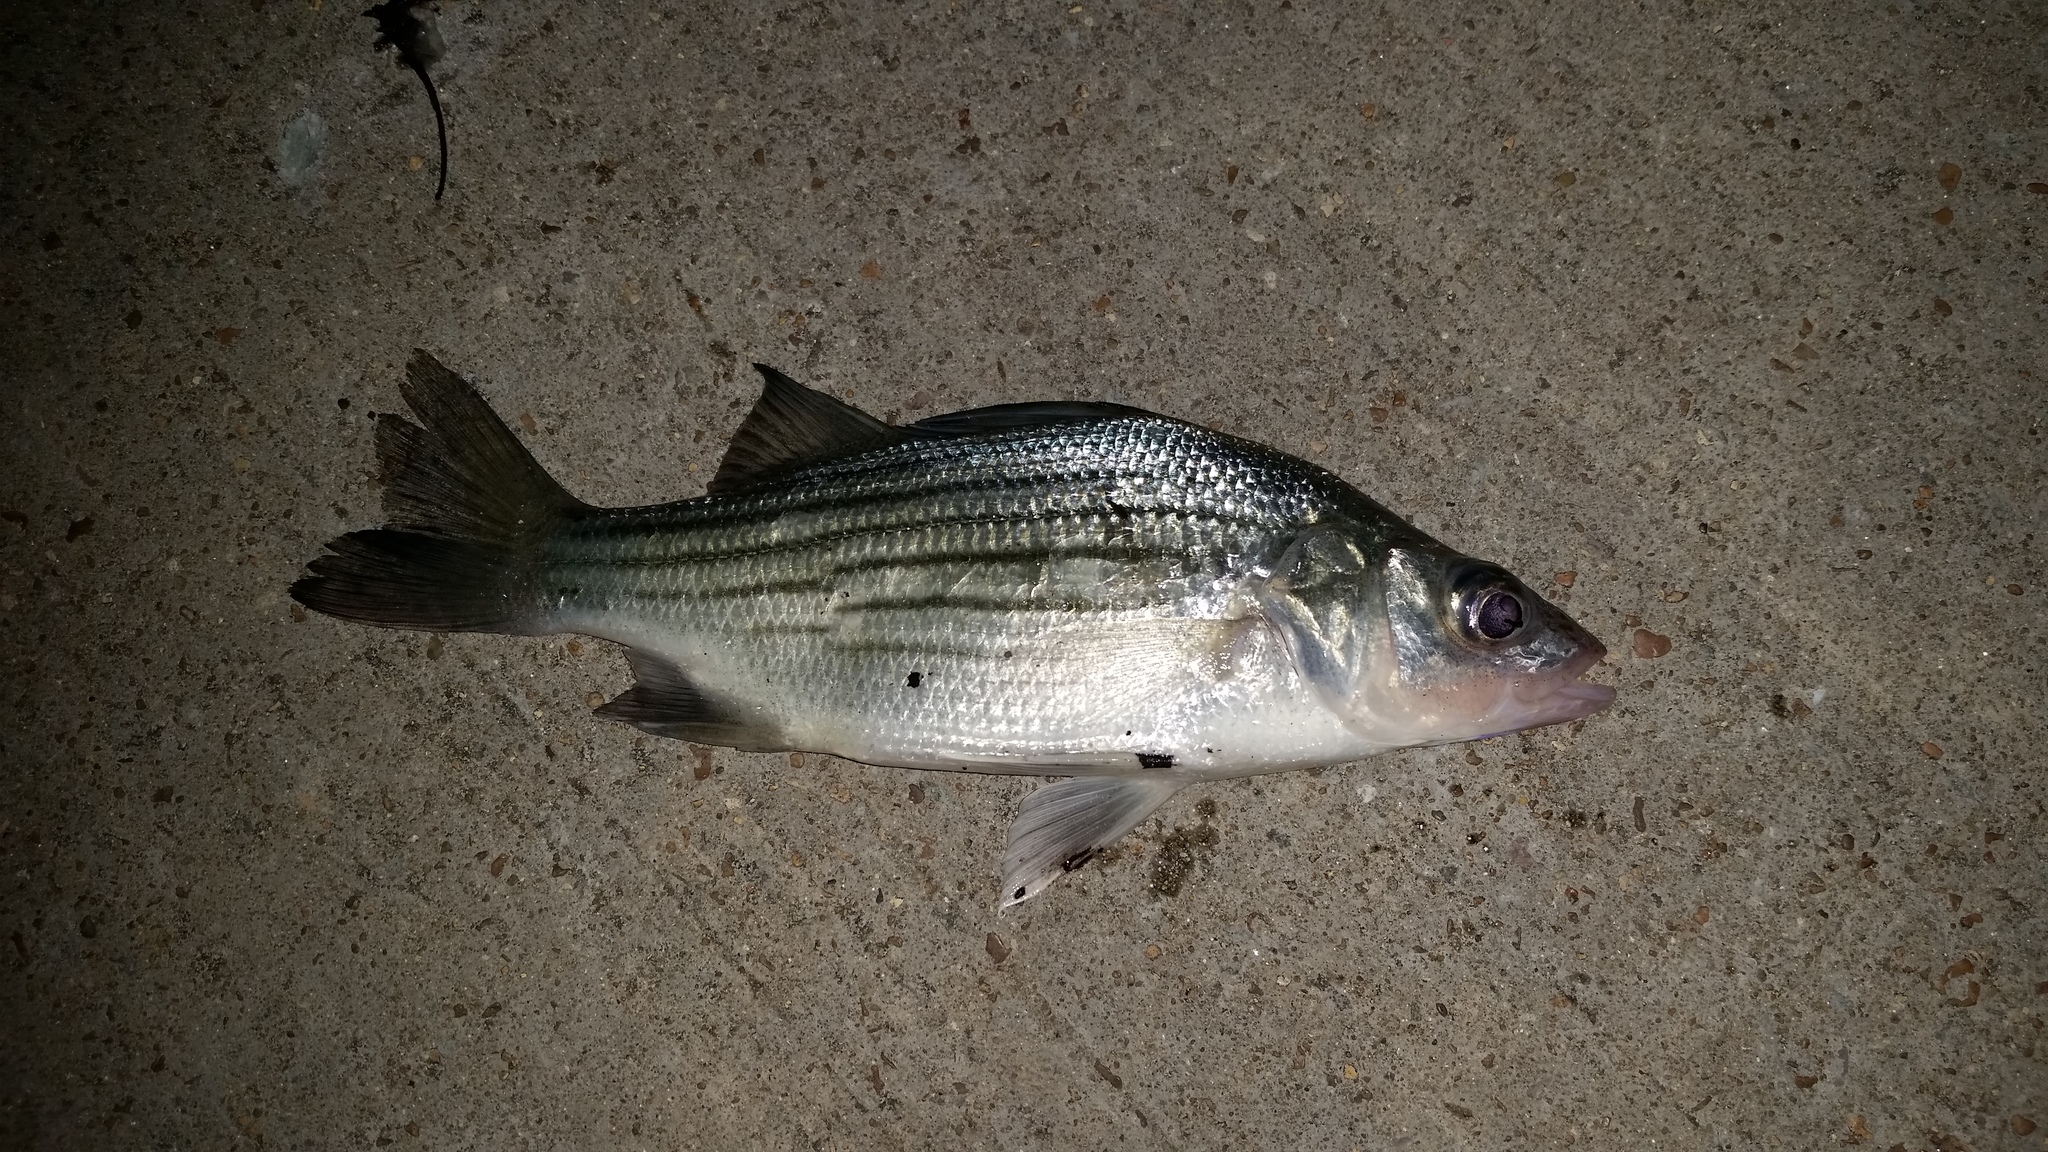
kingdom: Animalia
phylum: Chordata
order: Perciformes
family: Moronidae
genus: Morone
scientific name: Morone mississippiensis
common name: Yellow bass
